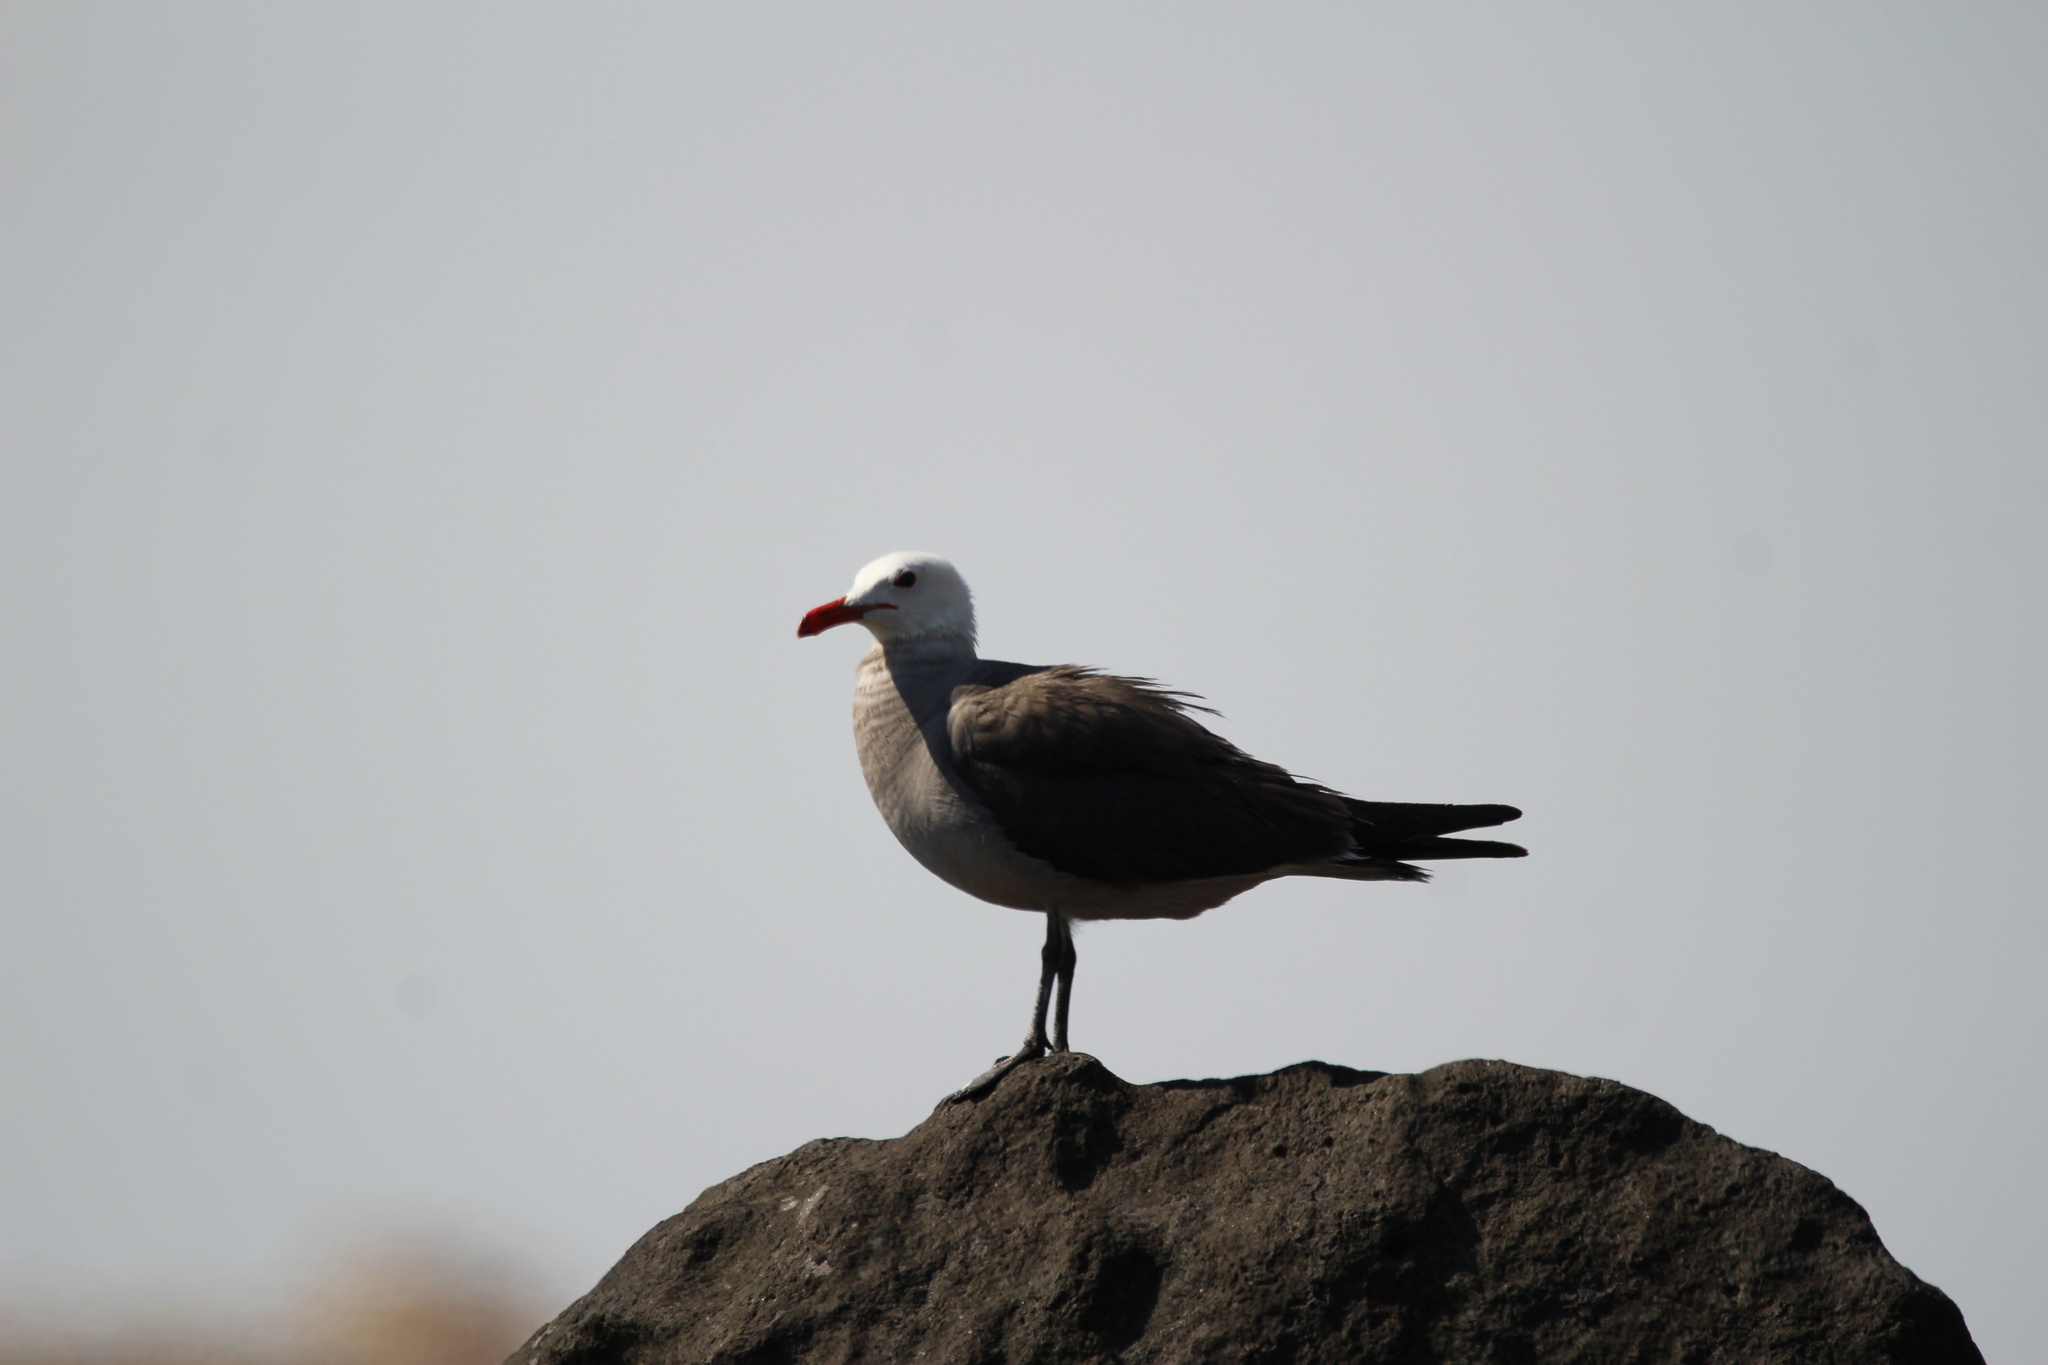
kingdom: Animalia
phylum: Chordata
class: Aves
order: Charadriiformes
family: Laridae
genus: Larus
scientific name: Larus heermanni
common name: Heermann's gull
